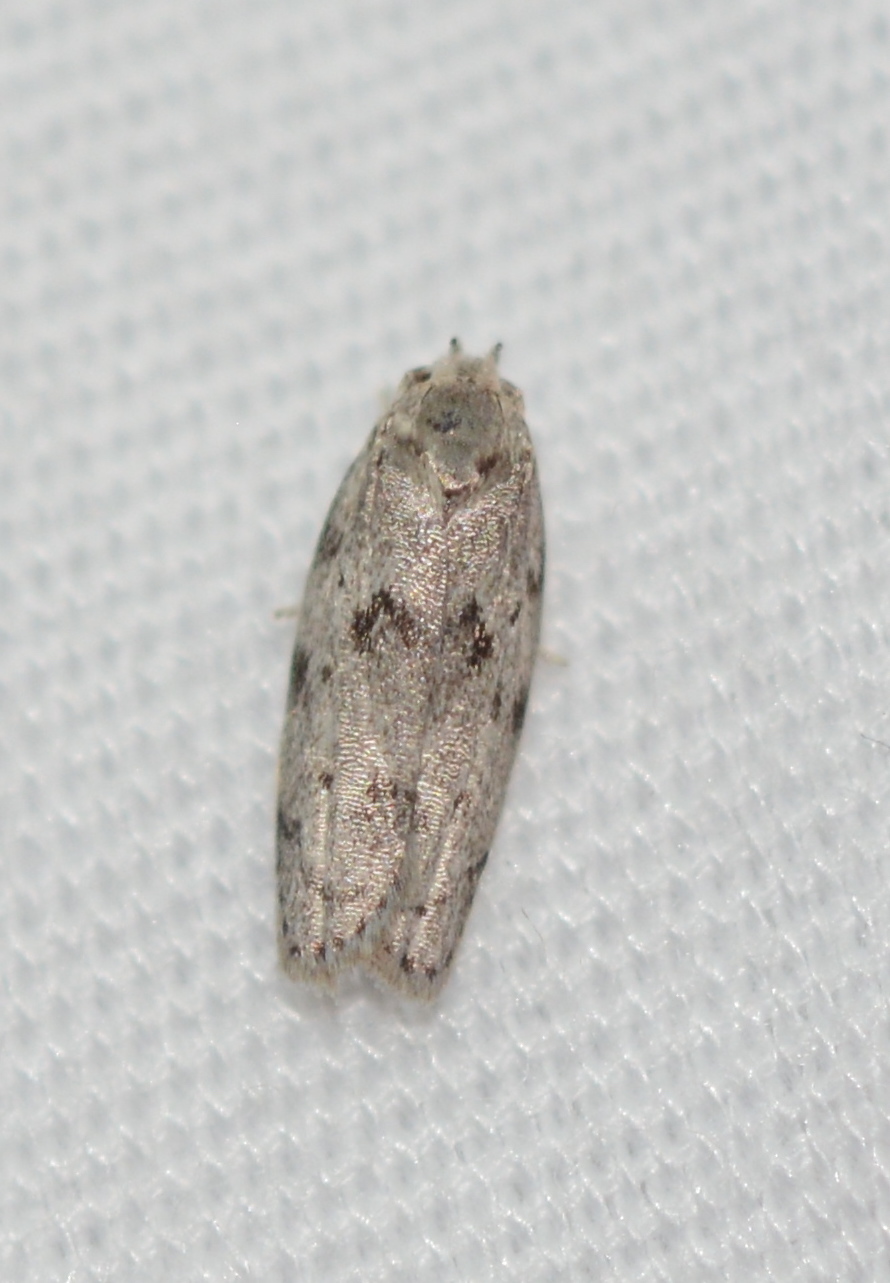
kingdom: Animalia
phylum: Arthropoda
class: Insecta
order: Lepidoptera
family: Depressariidae
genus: Antaeotricha
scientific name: Antaeotricha humilis
